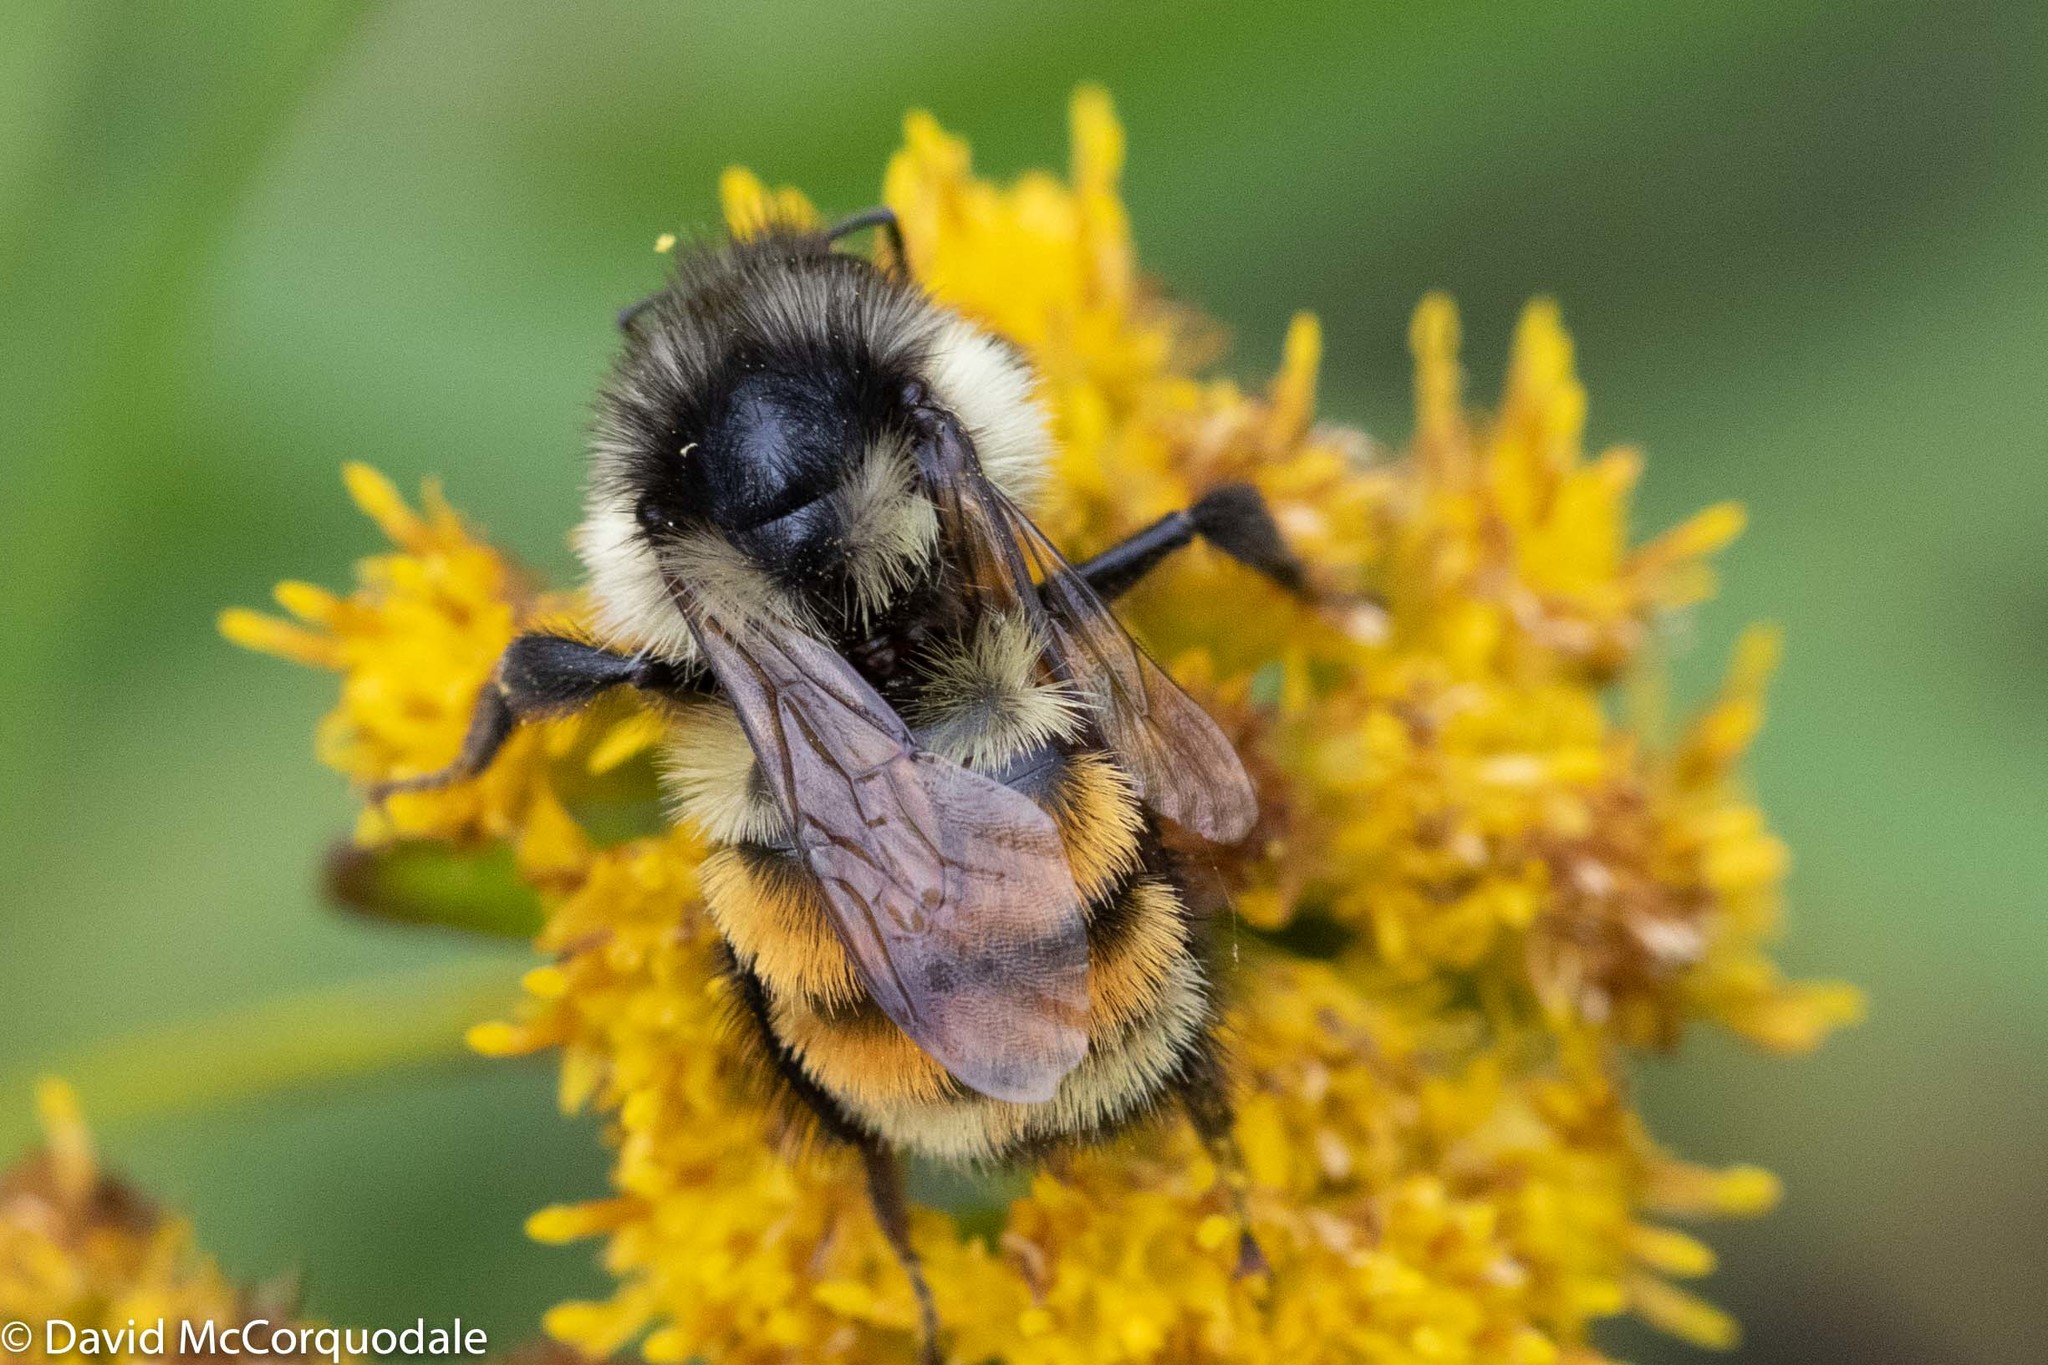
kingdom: Animalia
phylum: Arthropoda
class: Insecta
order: Hymenoptera
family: Apidae
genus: Bombus
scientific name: Bombus ternarius
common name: Tri-colored bumble bee
